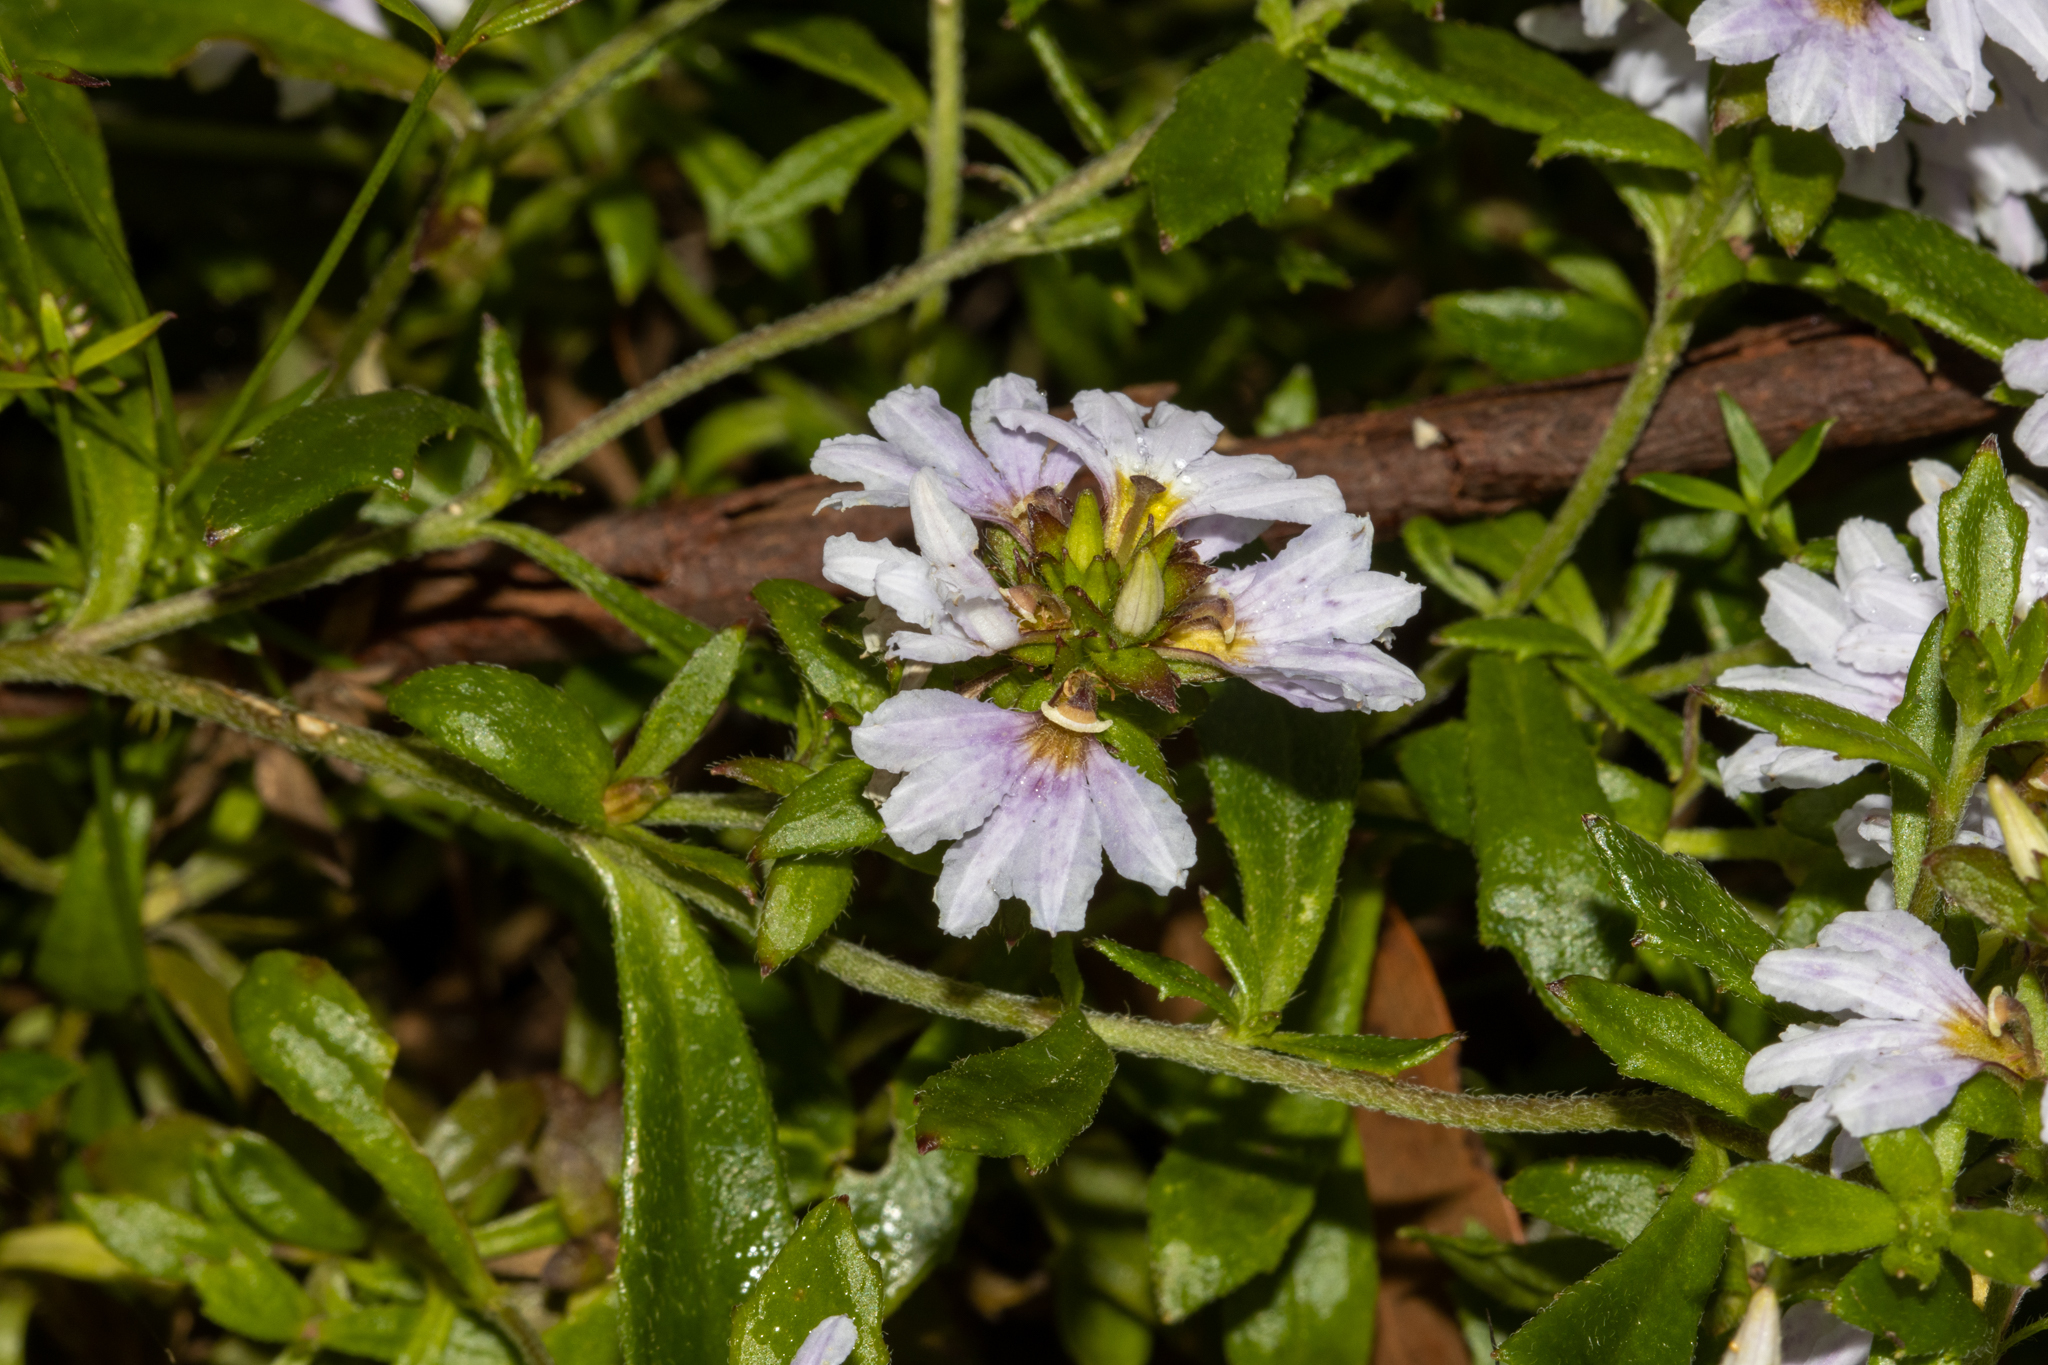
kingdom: Plantae
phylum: Tracheophyta
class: Magnoliopsida
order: Asterales
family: Goodeniaceae
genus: Scaevola
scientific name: Scaevola albida
